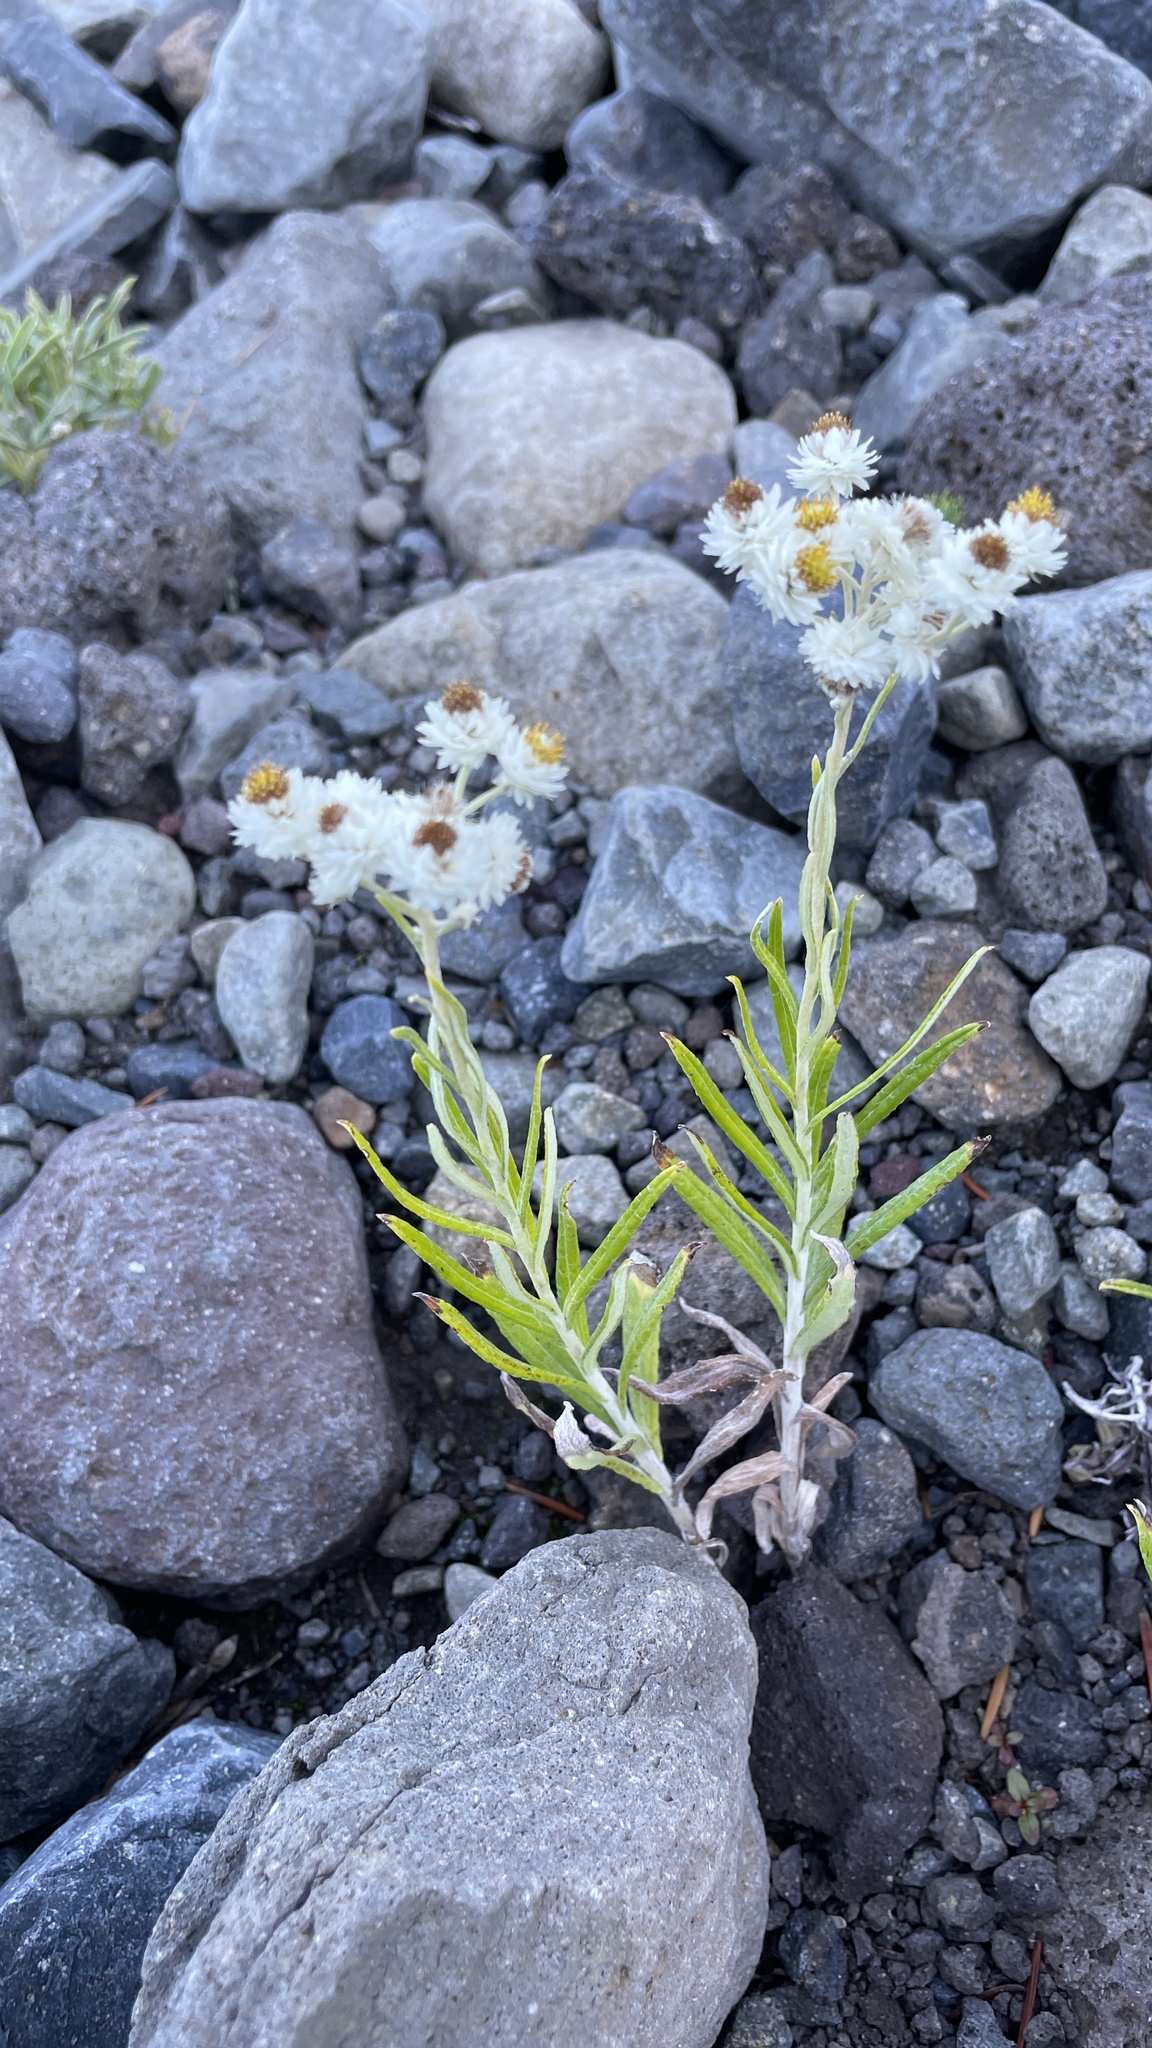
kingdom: Plantae
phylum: Tracheophyta
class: Magnoliopsida
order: Asterales
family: Asteraceae
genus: Anaphalis
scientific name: Anaphalis margaritacea
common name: Pearly everlasting
